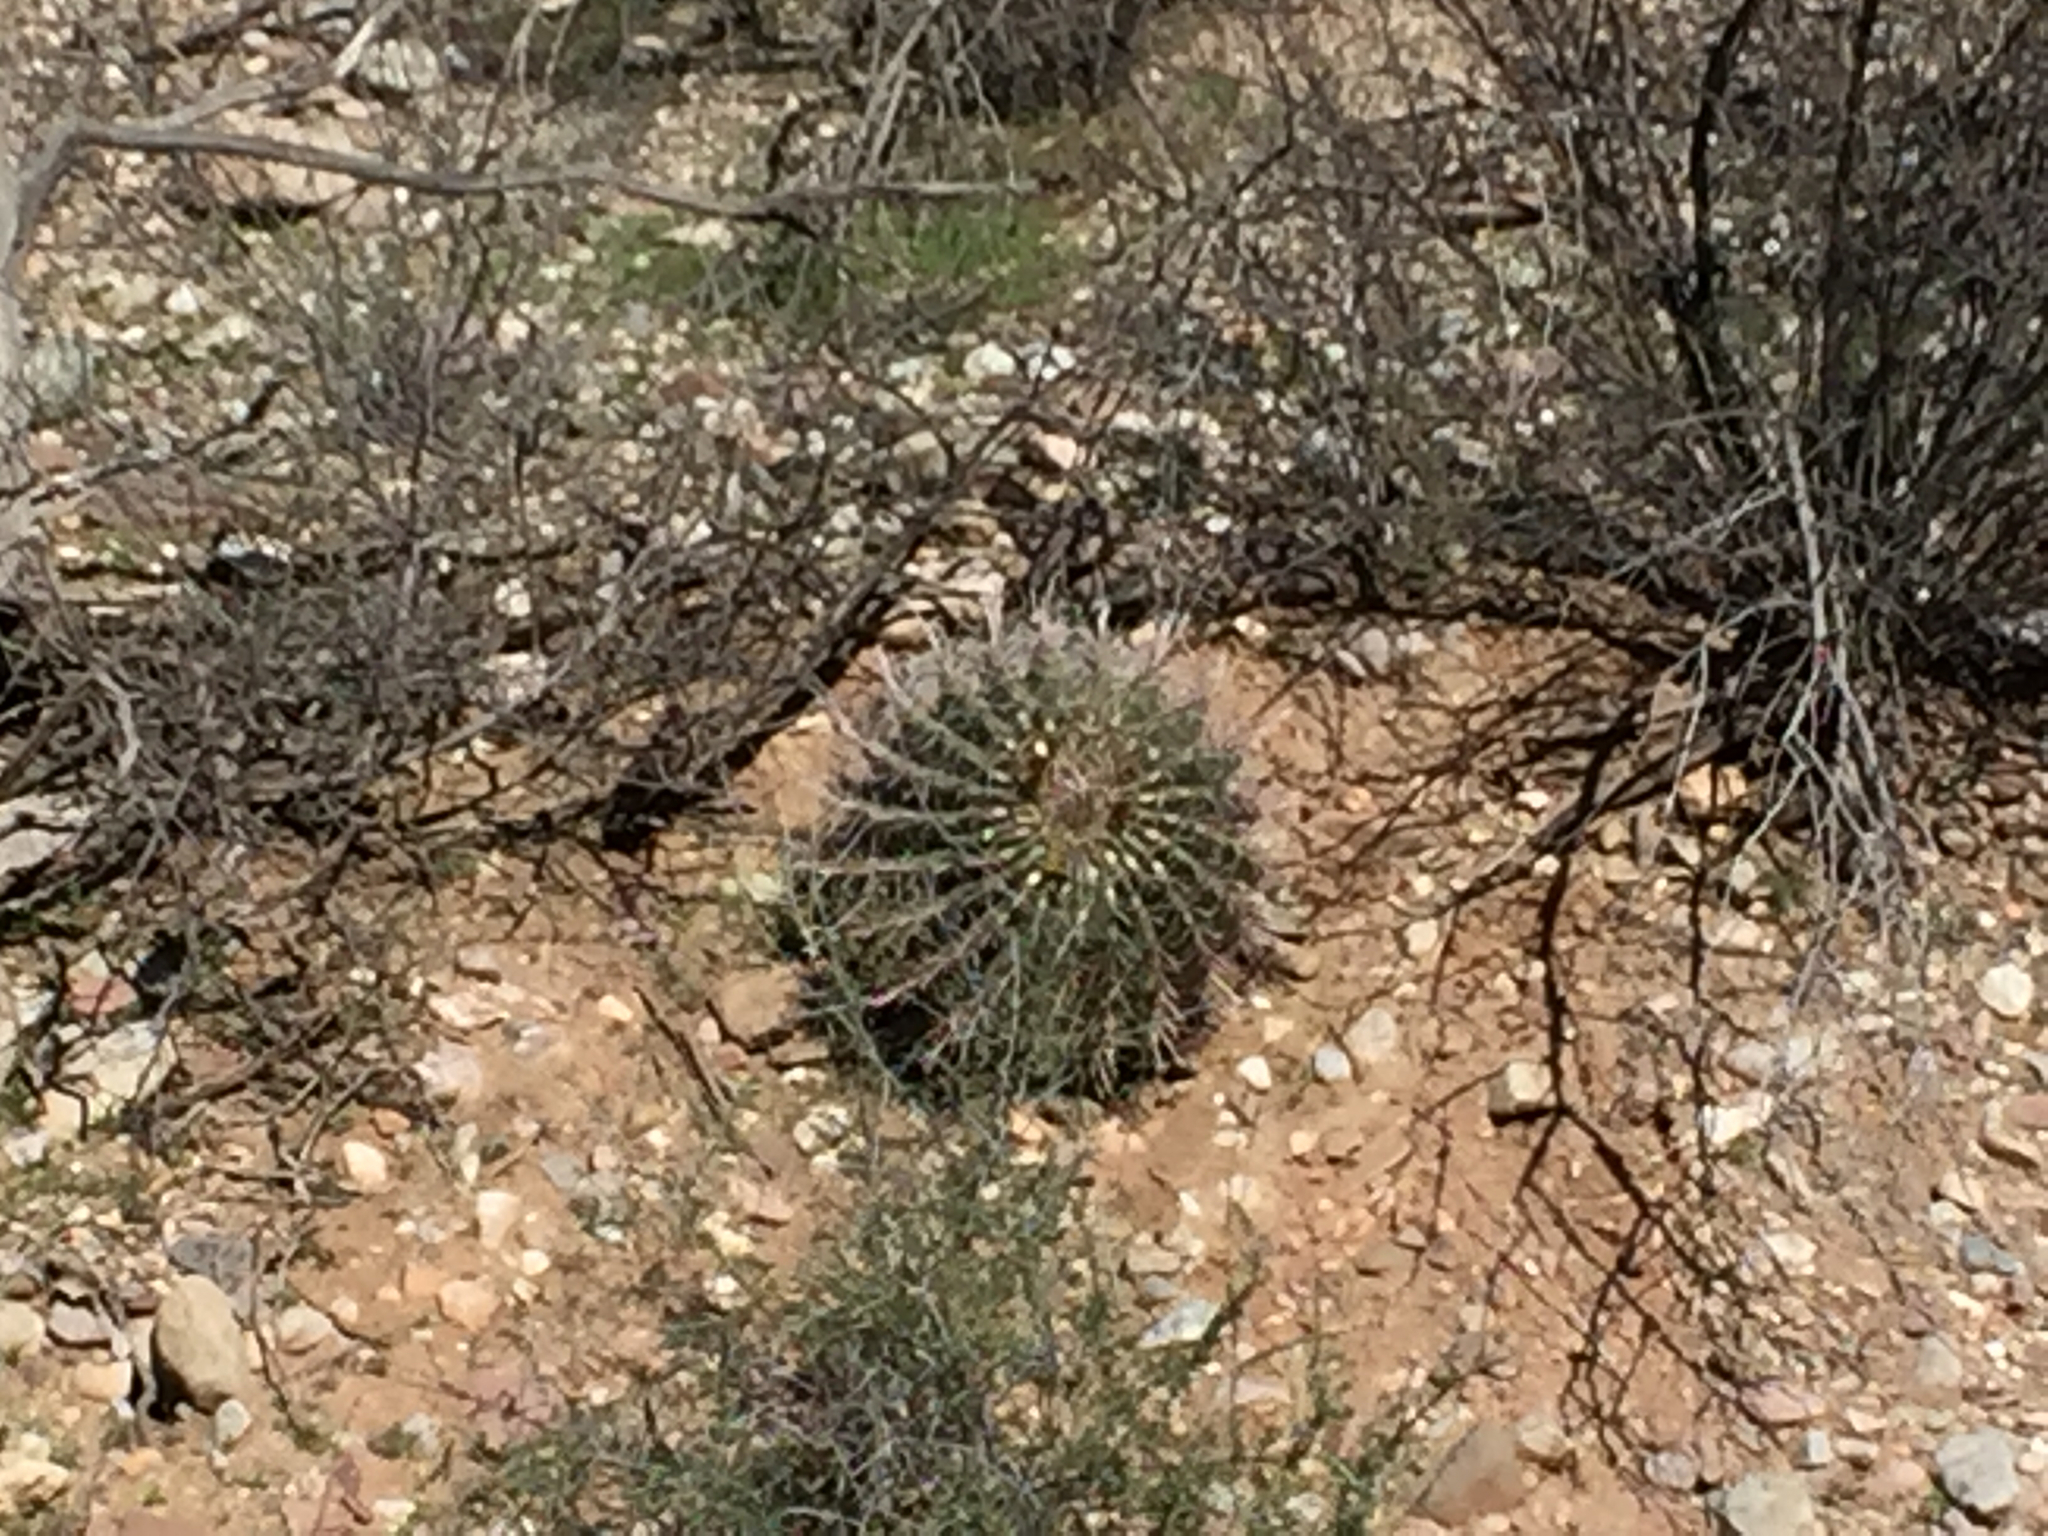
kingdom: Plantae
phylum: Tracheophyta
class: Magnoliopsida
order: Caryophyllales
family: Cactaceae
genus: Ferocactus
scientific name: Ferocactus wislizeni
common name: Candy barrel cactus
